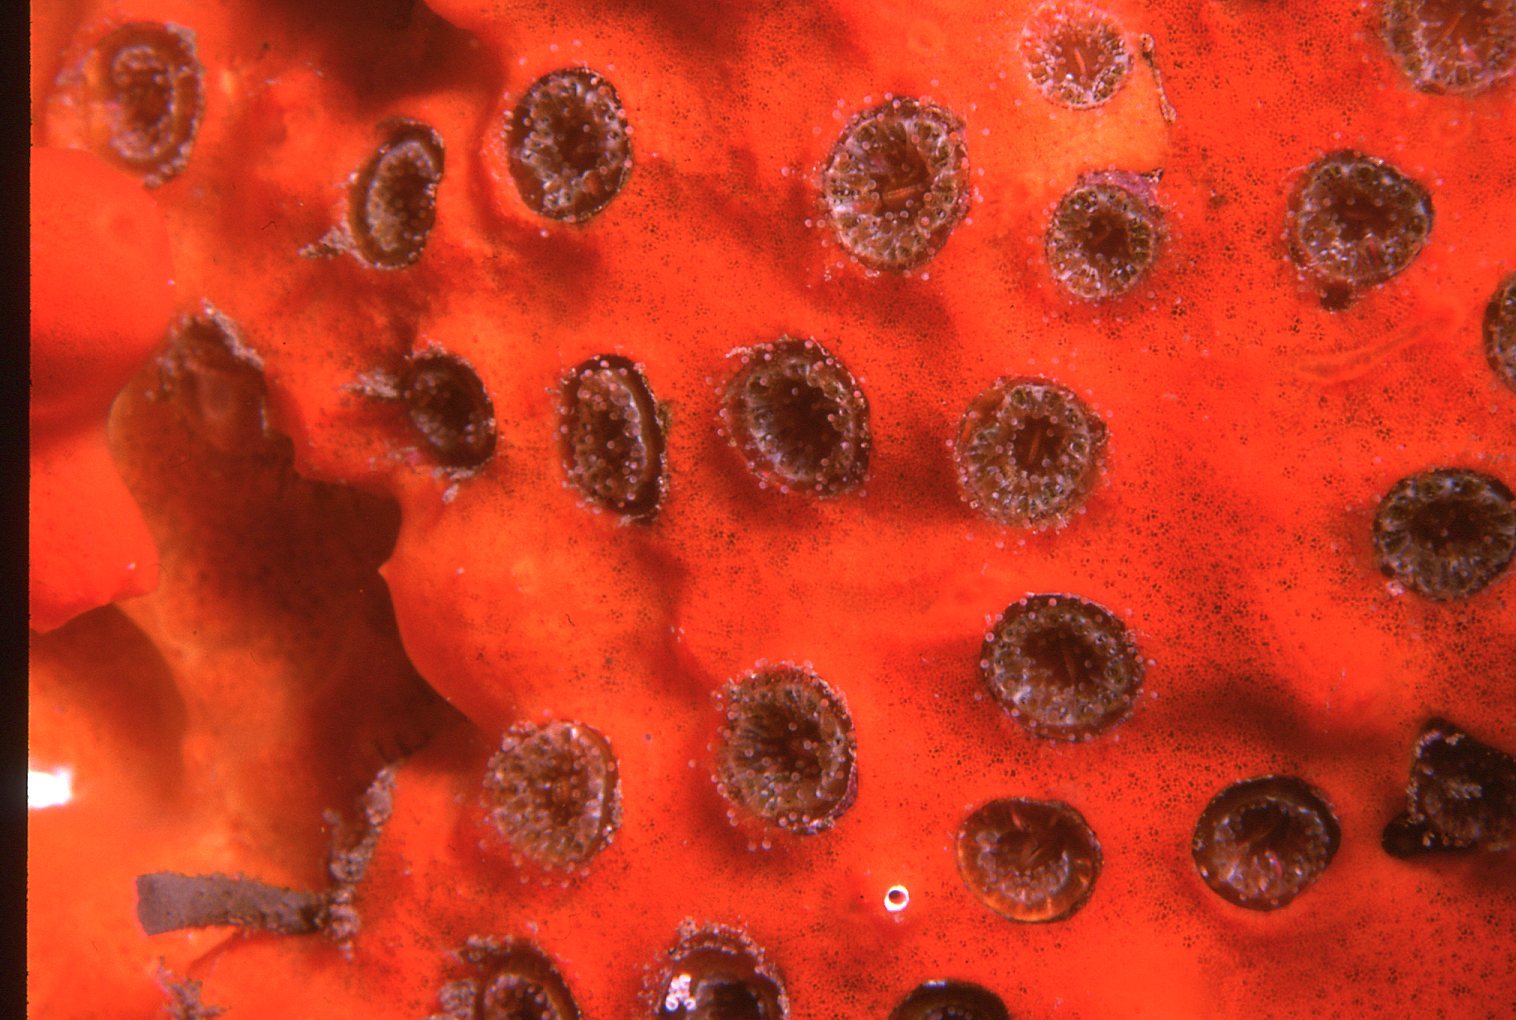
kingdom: Animalia
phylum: Cnidaria
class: Anthozoa
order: Scleractinia
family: Rhizangiidae
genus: Culicia
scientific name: Culicia tenella
